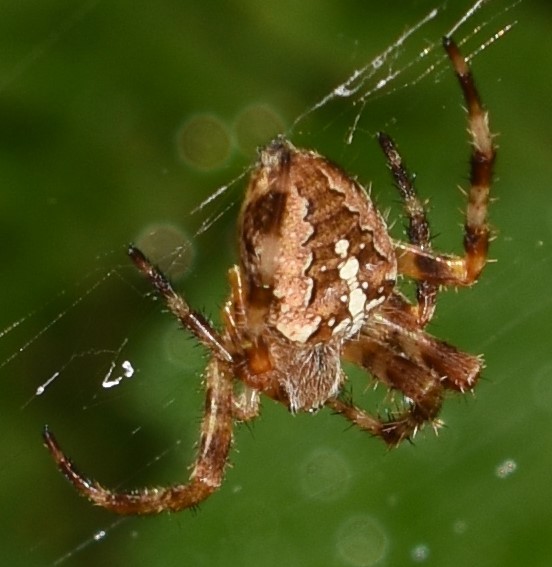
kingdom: Animalia
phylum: Arthropoda
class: Arachnida
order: Araneae
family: Araneidae
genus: Araneus
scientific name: Araneus diadematus
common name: Cross orbweaver
